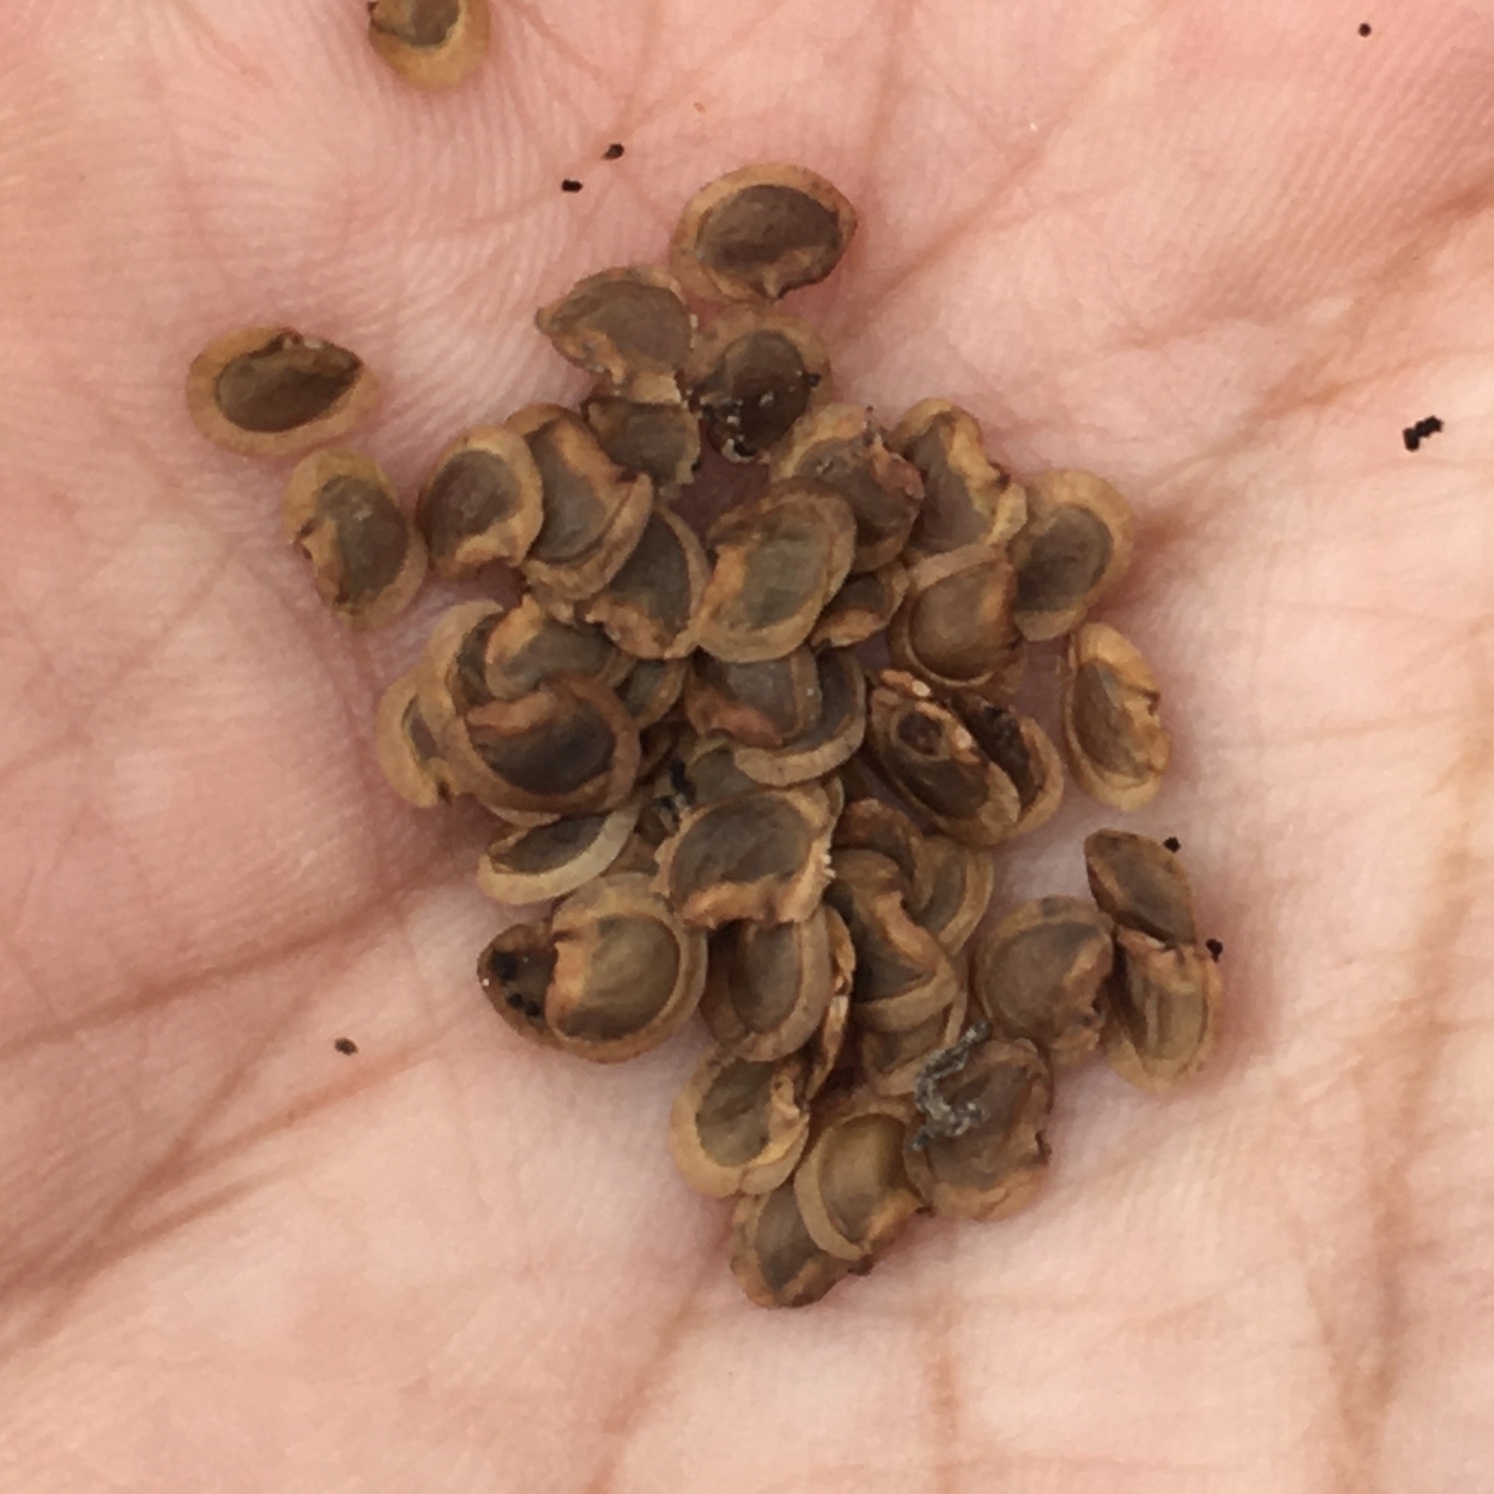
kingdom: Plantae
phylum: Tracheophyta
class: Magnoliopsida
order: Lamiales
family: Orobanchaceae
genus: Rhinanthus
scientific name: Rhinanthus minor
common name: Yellow-rattle
